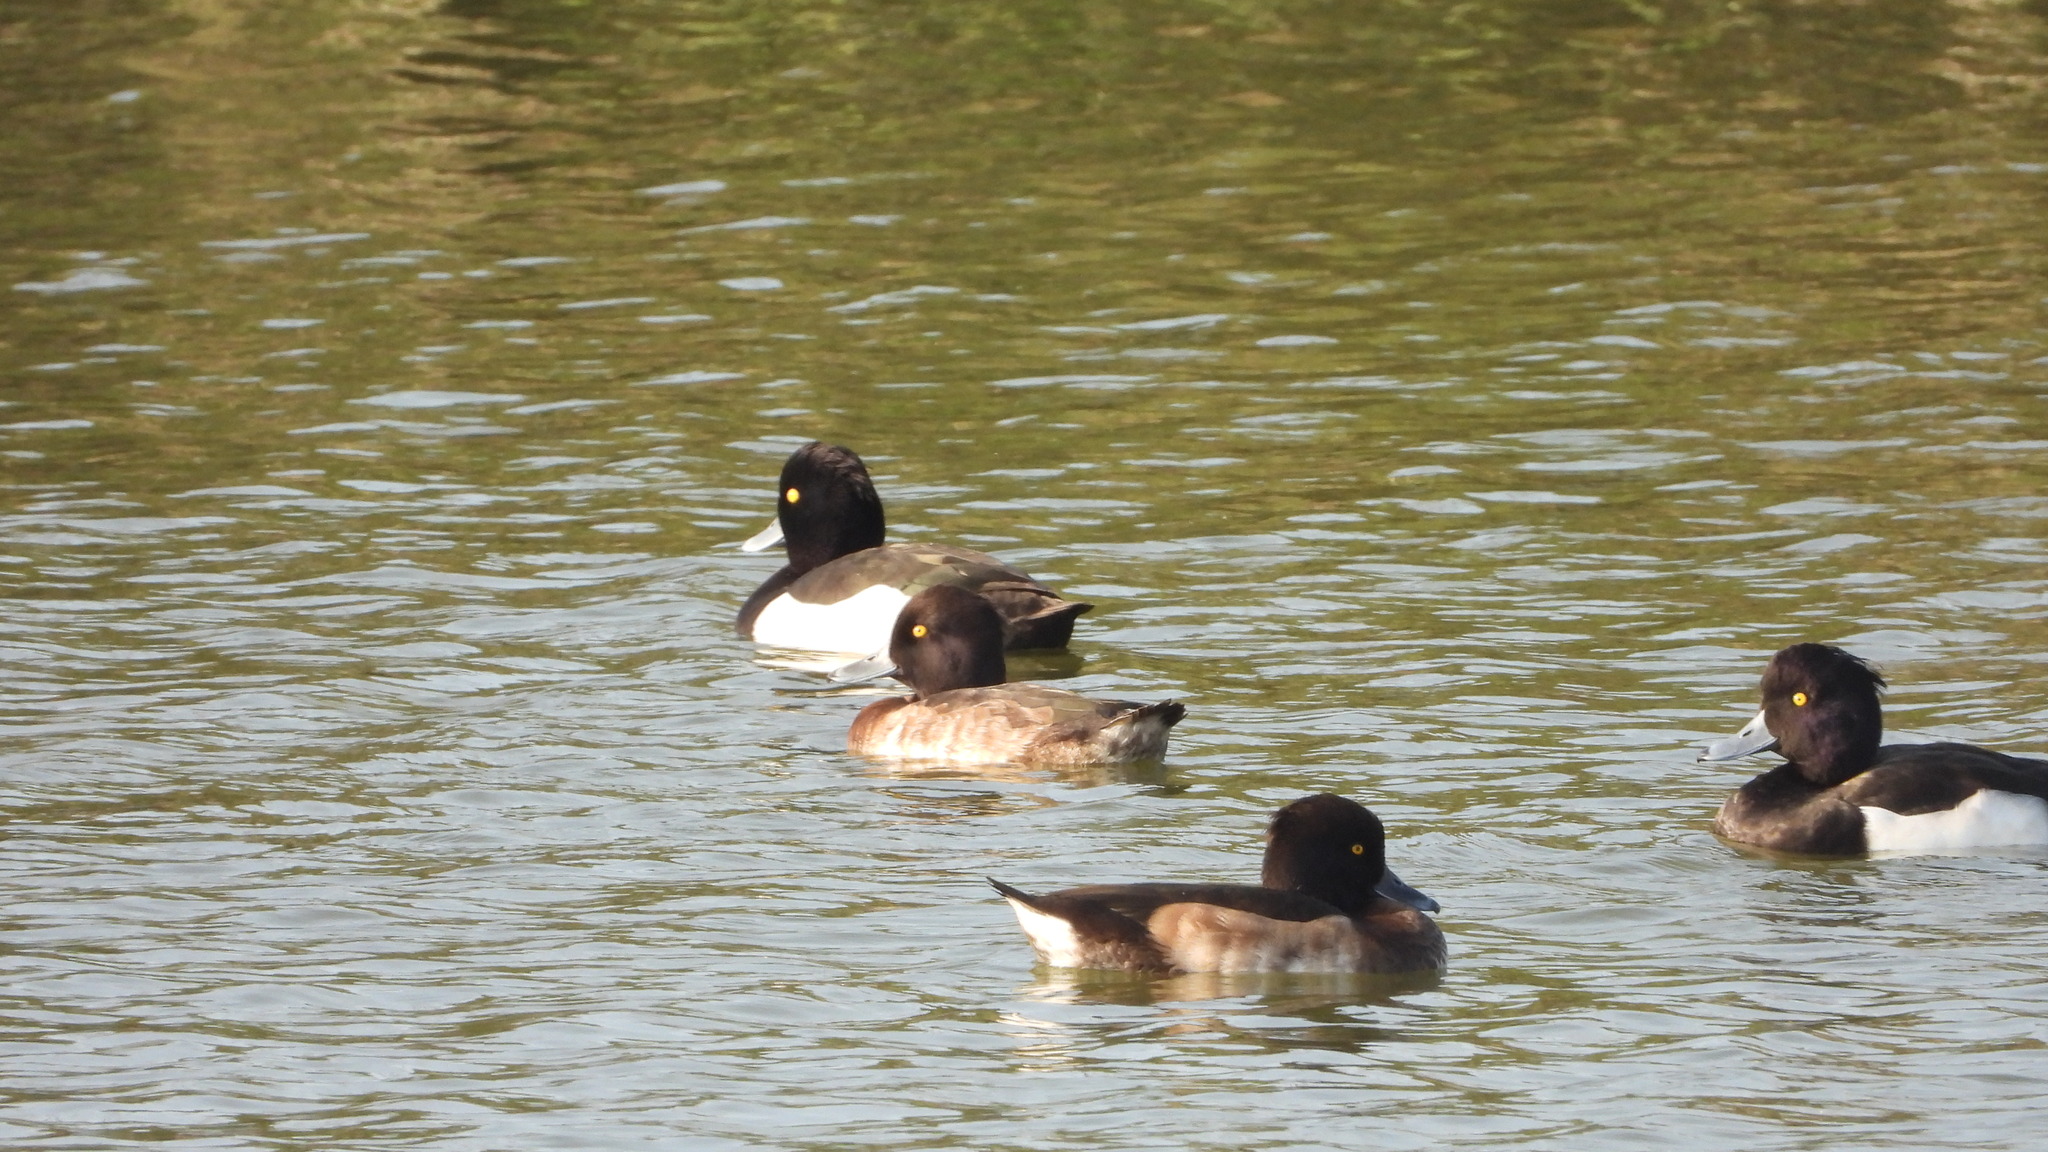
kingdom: Animalia
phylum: Chordata
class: Aves
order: Anseriformes
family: Anatidae
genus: Aythya
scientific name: Aythya fuligula
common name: Tufted duck
